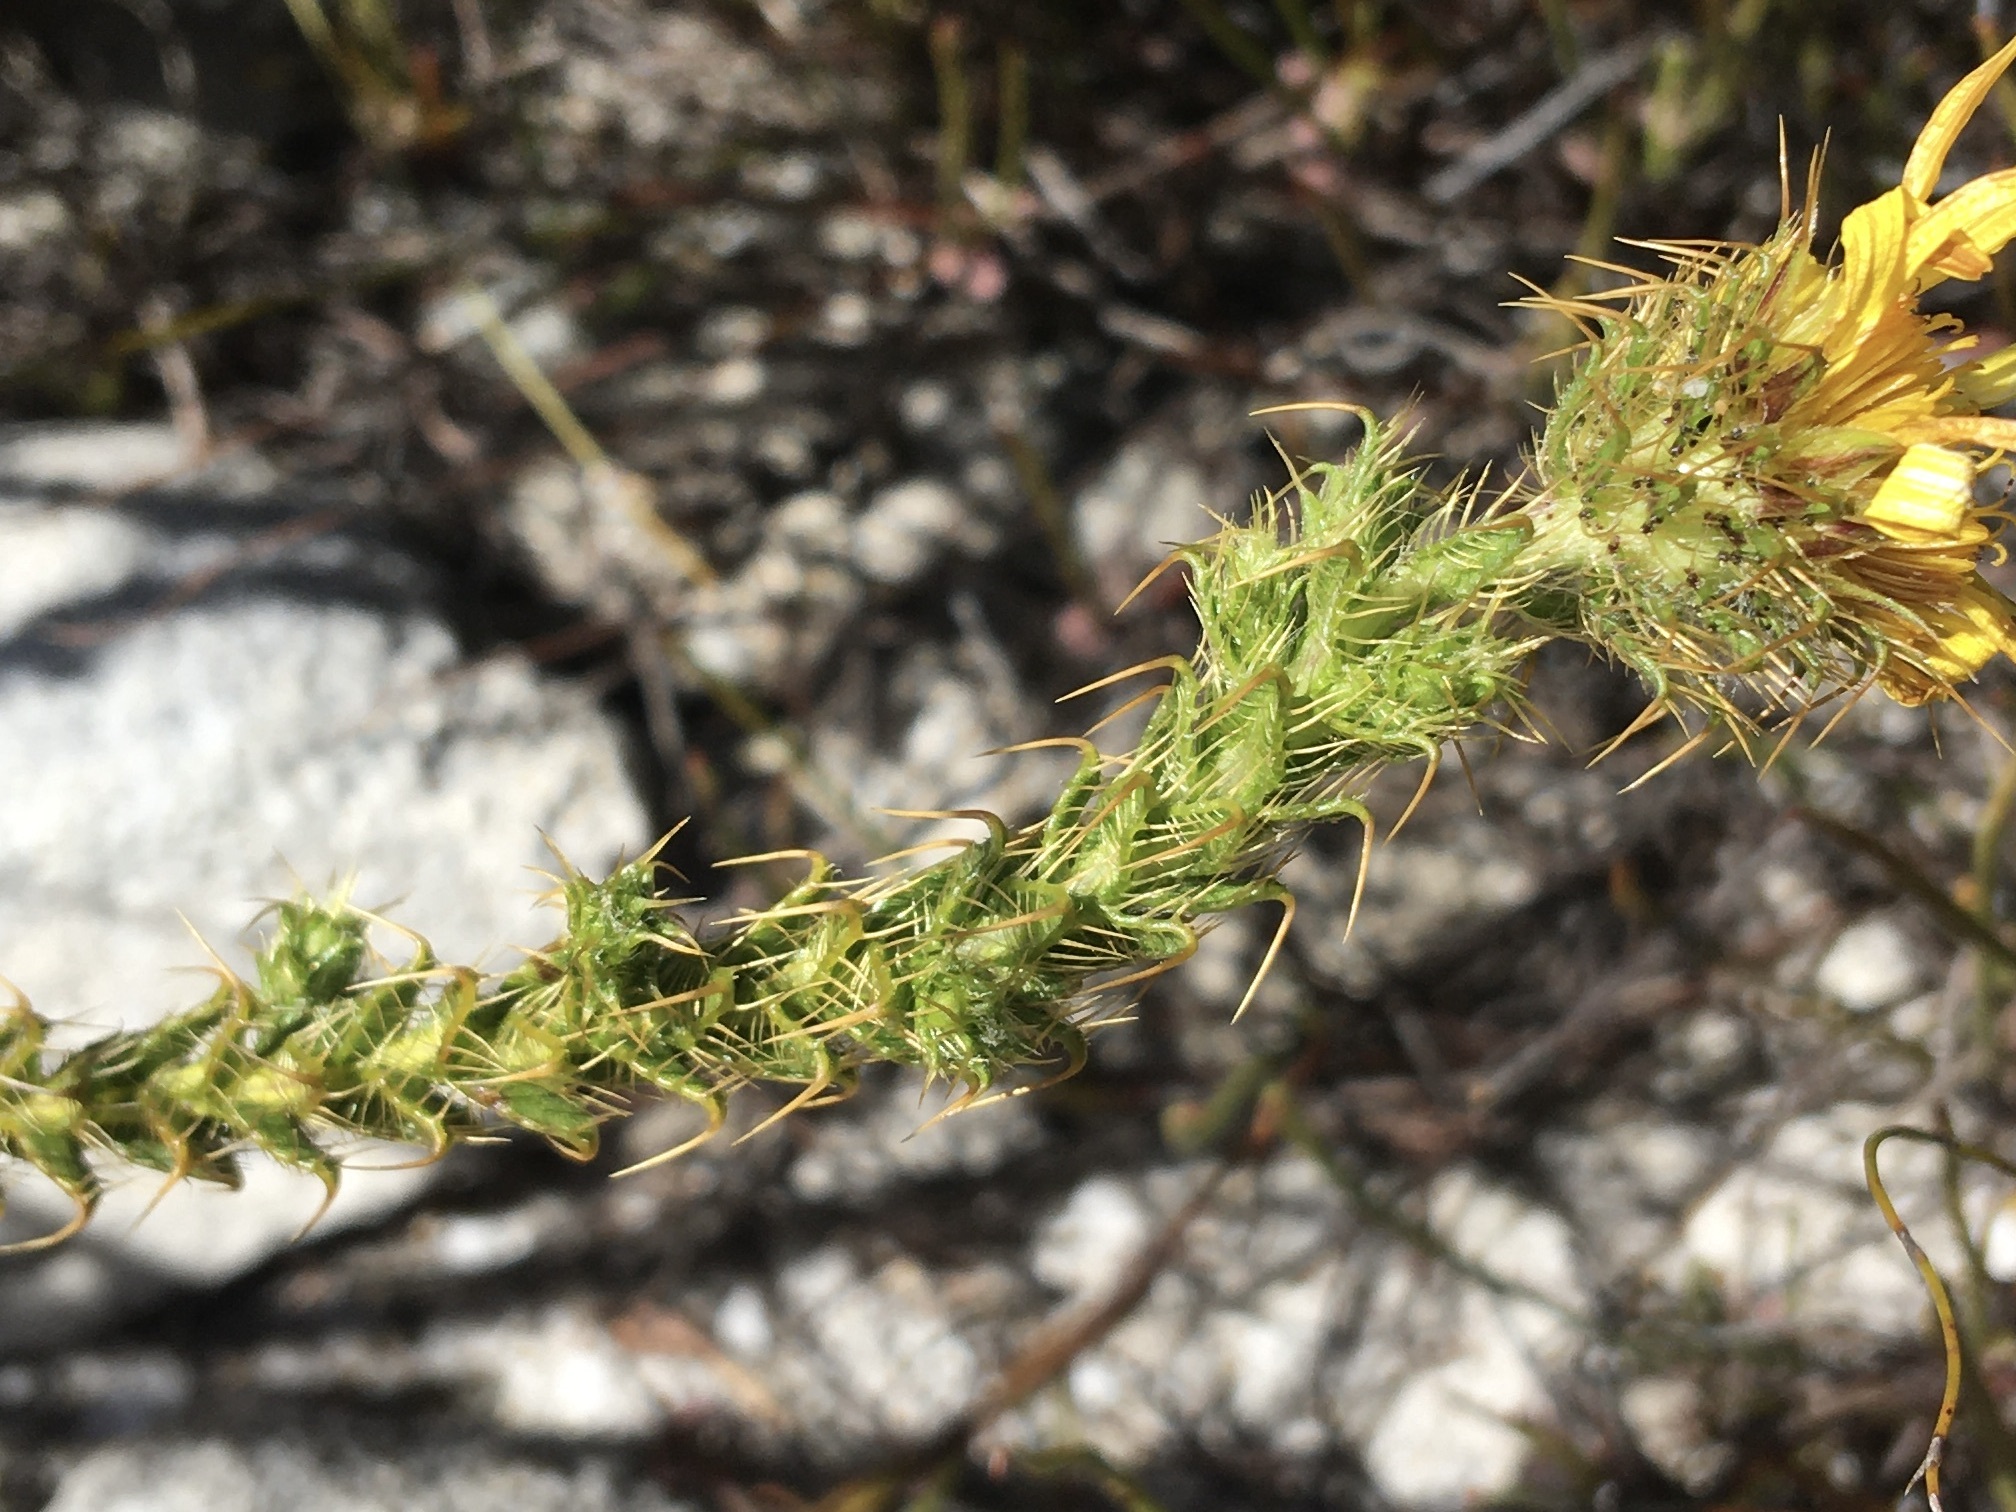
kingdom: Plantae
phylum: Tracheophyta
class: Magnoliopsida
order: Asterales
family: Asteraceae
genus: Cullumia
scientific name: Cullumia reticulata
